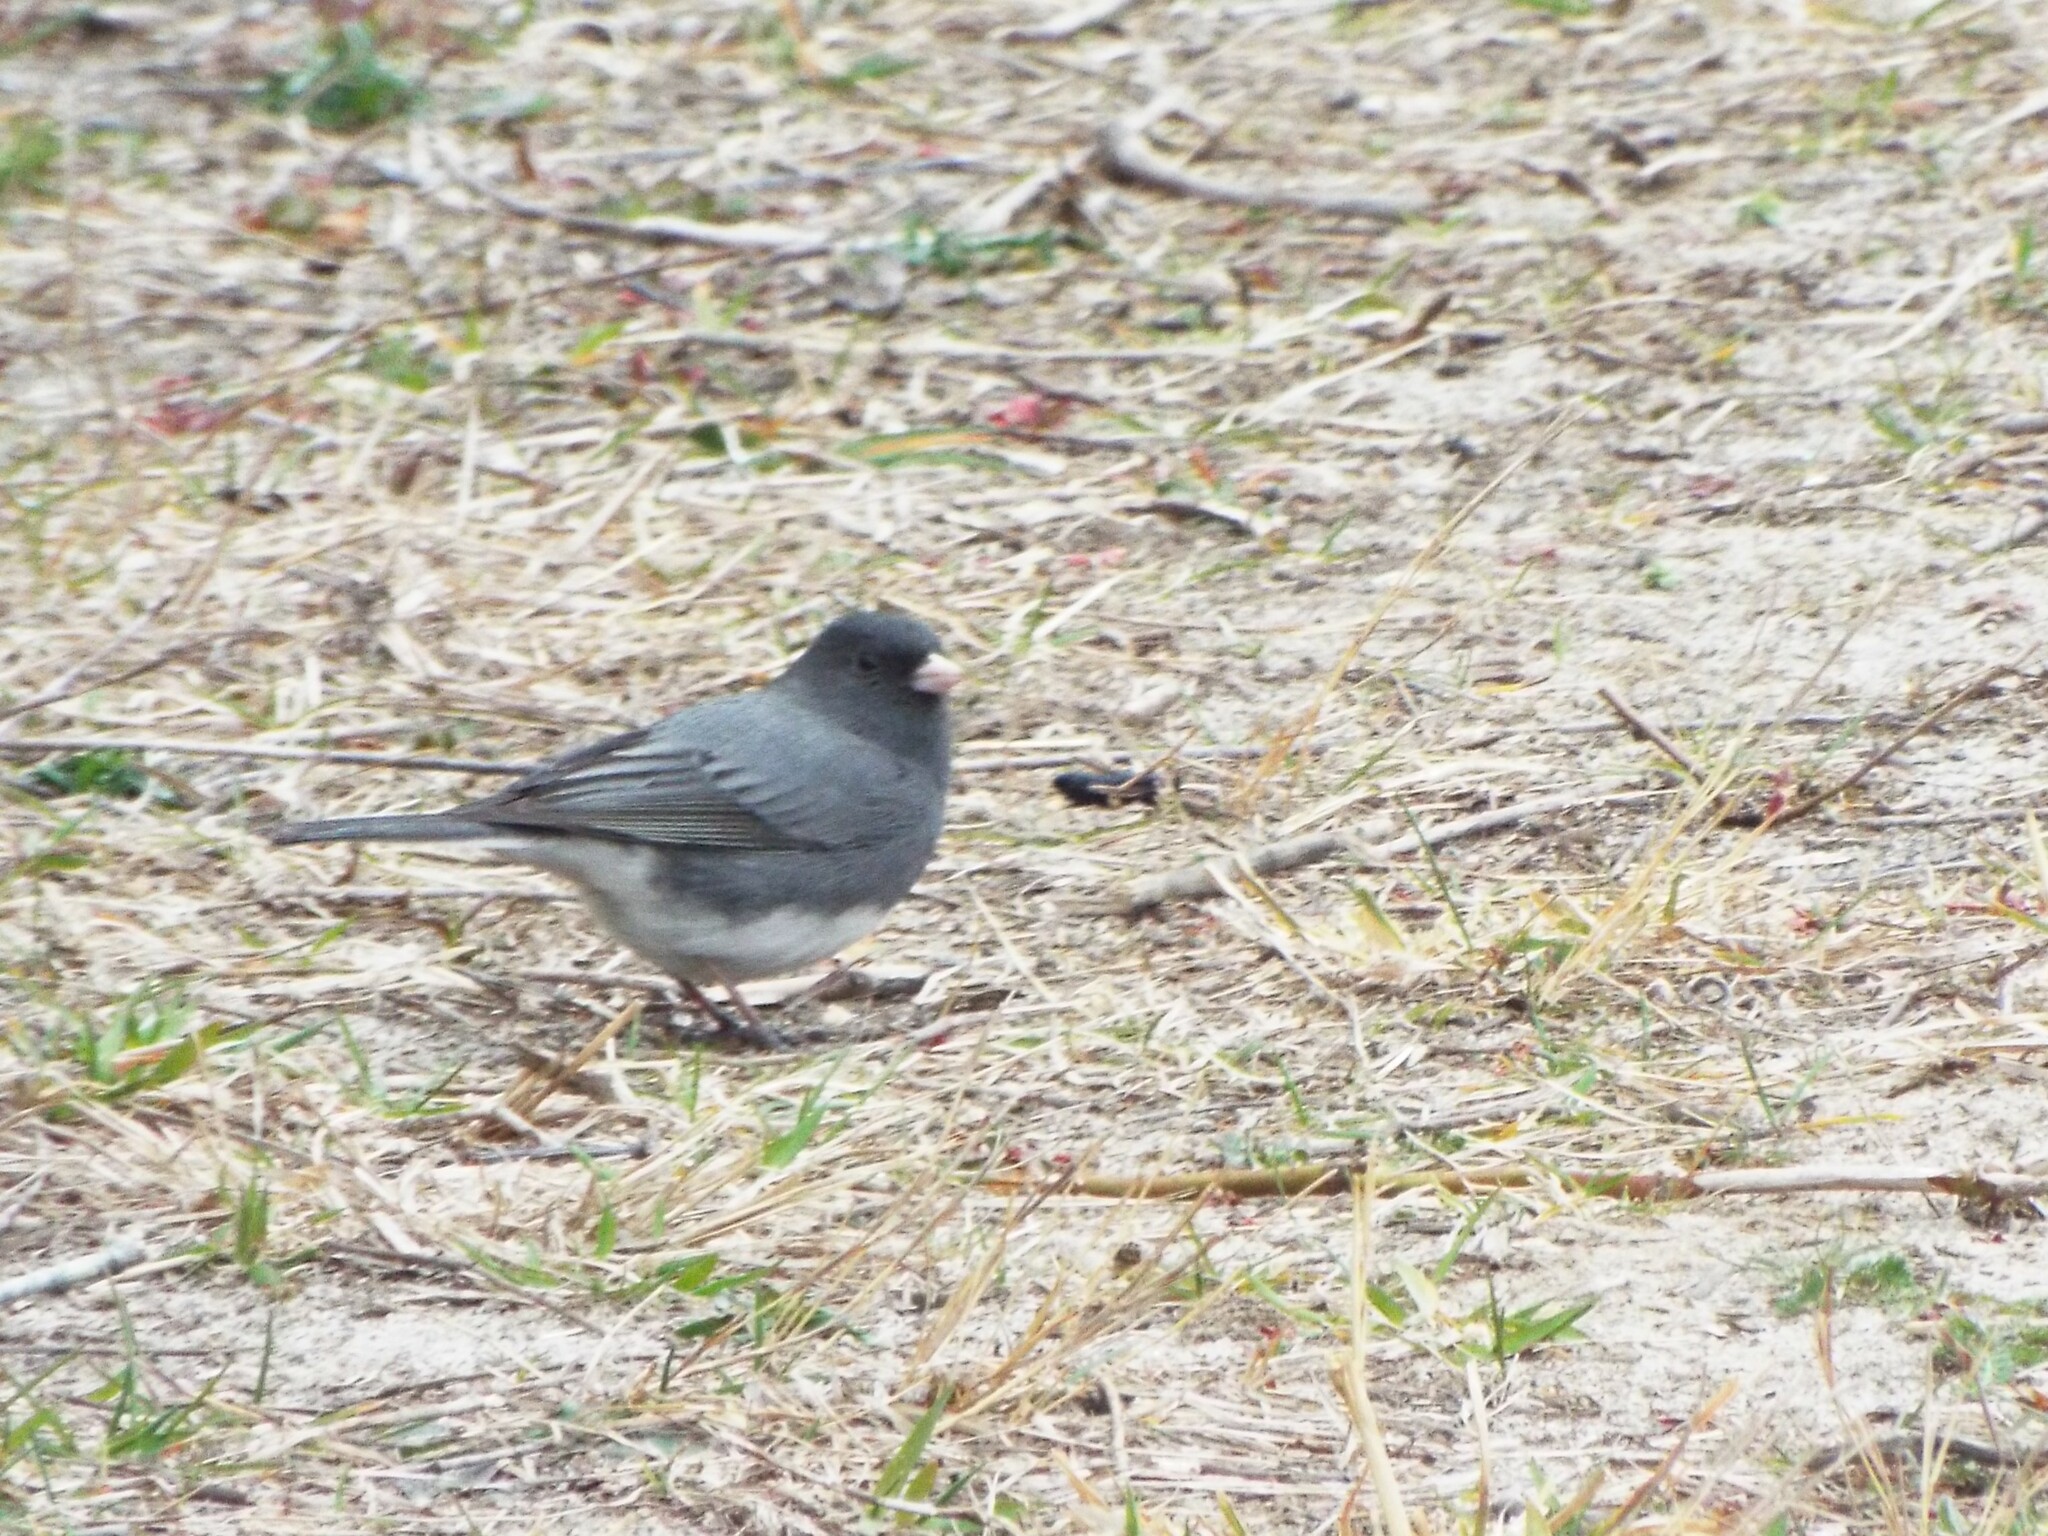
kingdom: Animalia
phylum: Chordata
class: Aves
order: Passeriformes
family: Passerellidae
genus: Junco
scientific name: Junco hyemalis
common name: Dark-eyed junco
